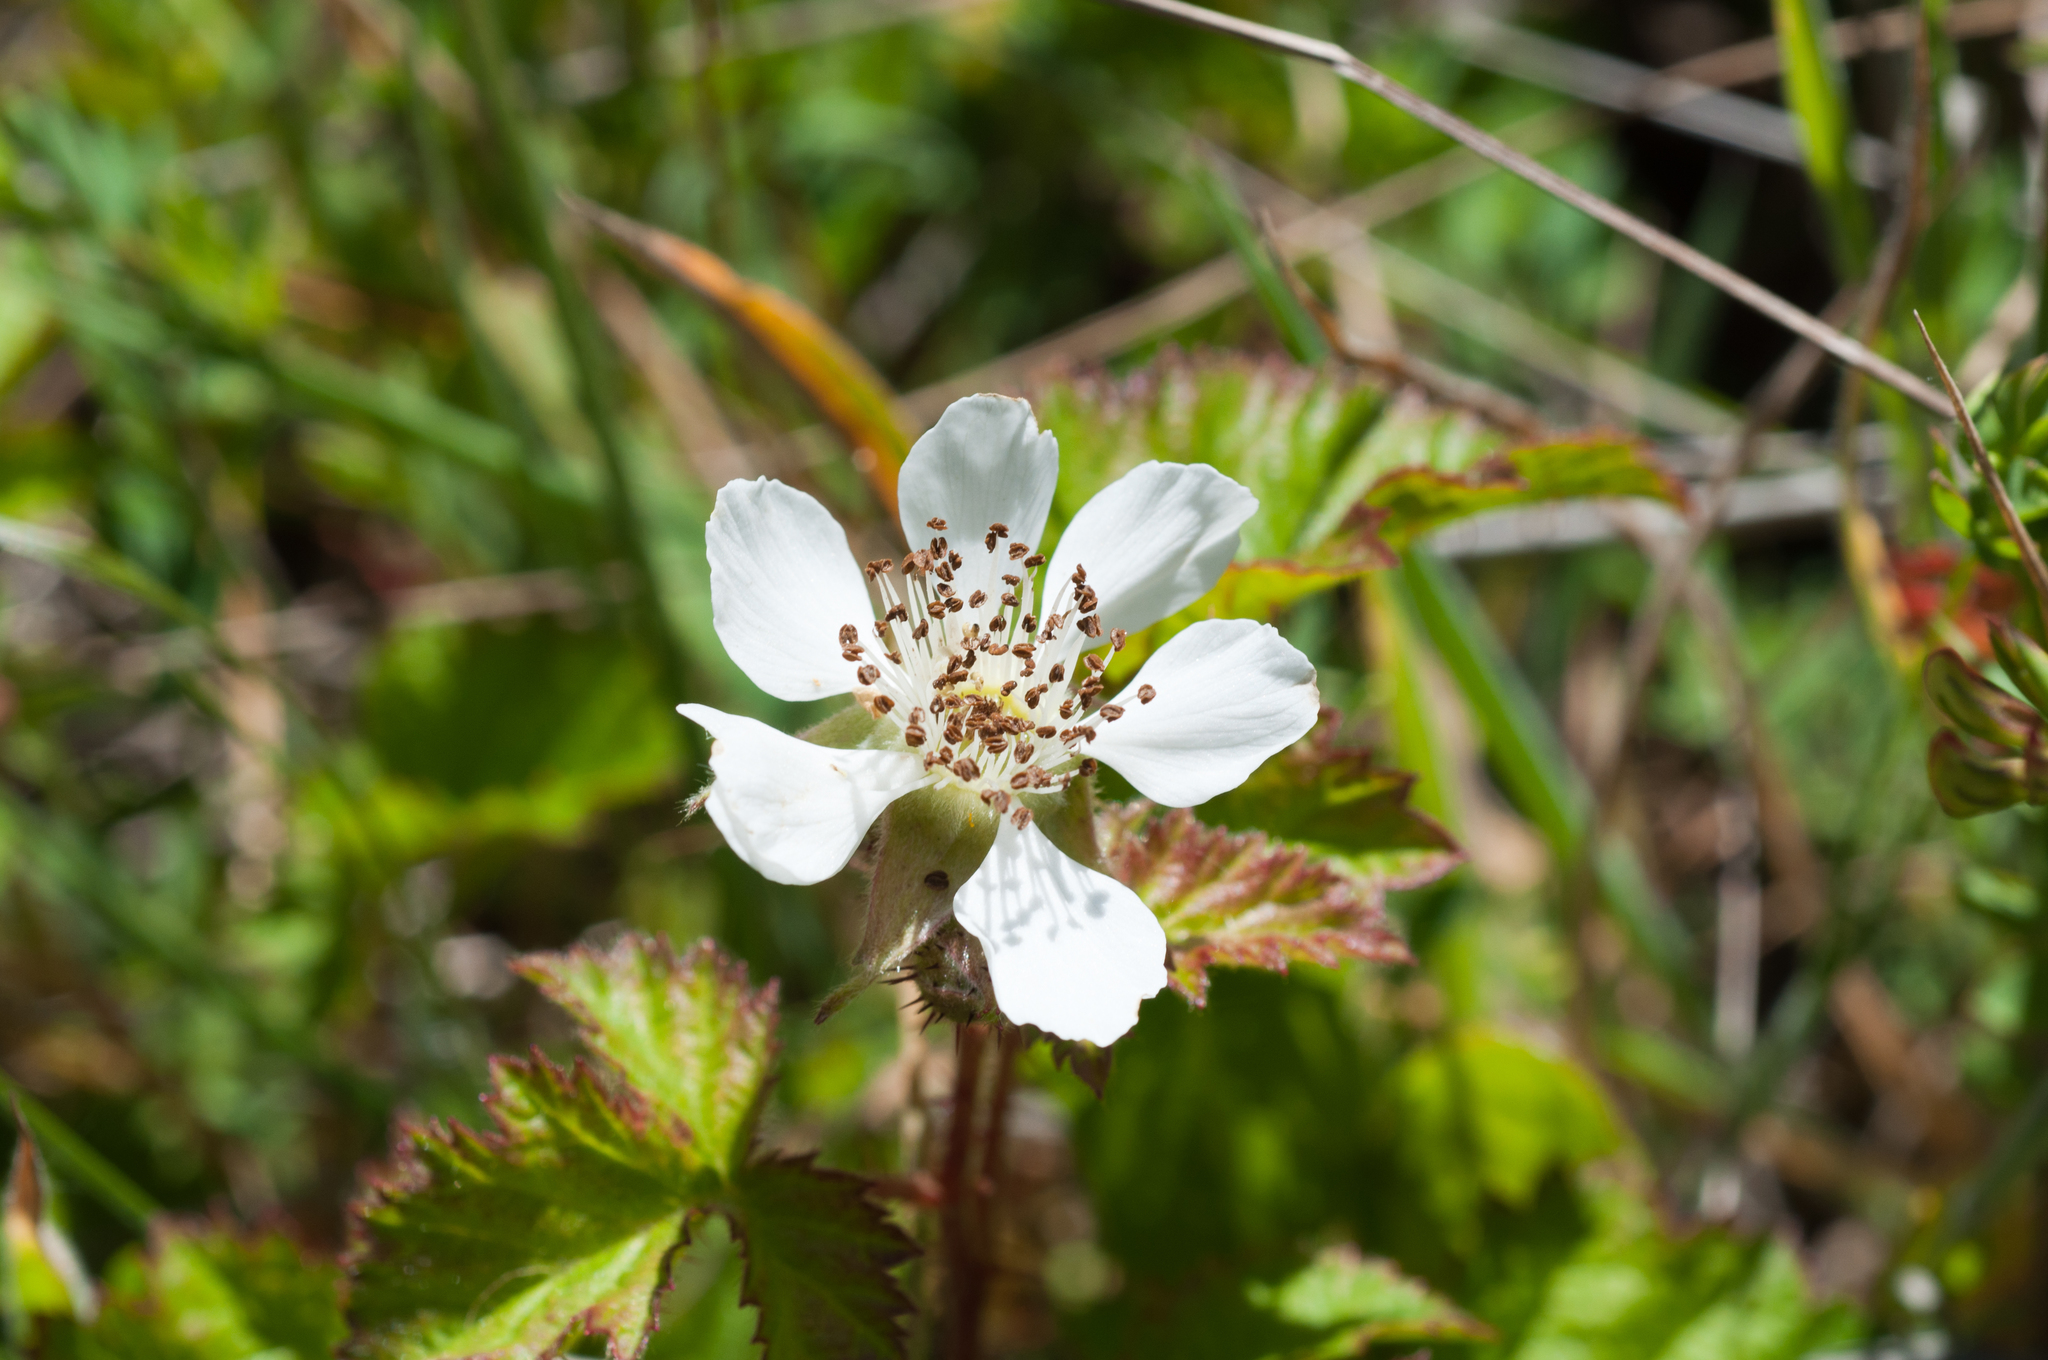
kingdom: Plantae
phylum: Tracheophyta
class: Magnoliopsida
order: Rosales
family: Rosaceae
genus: Rubus
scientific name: Rubus ursinus
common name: Pacific blackberry
